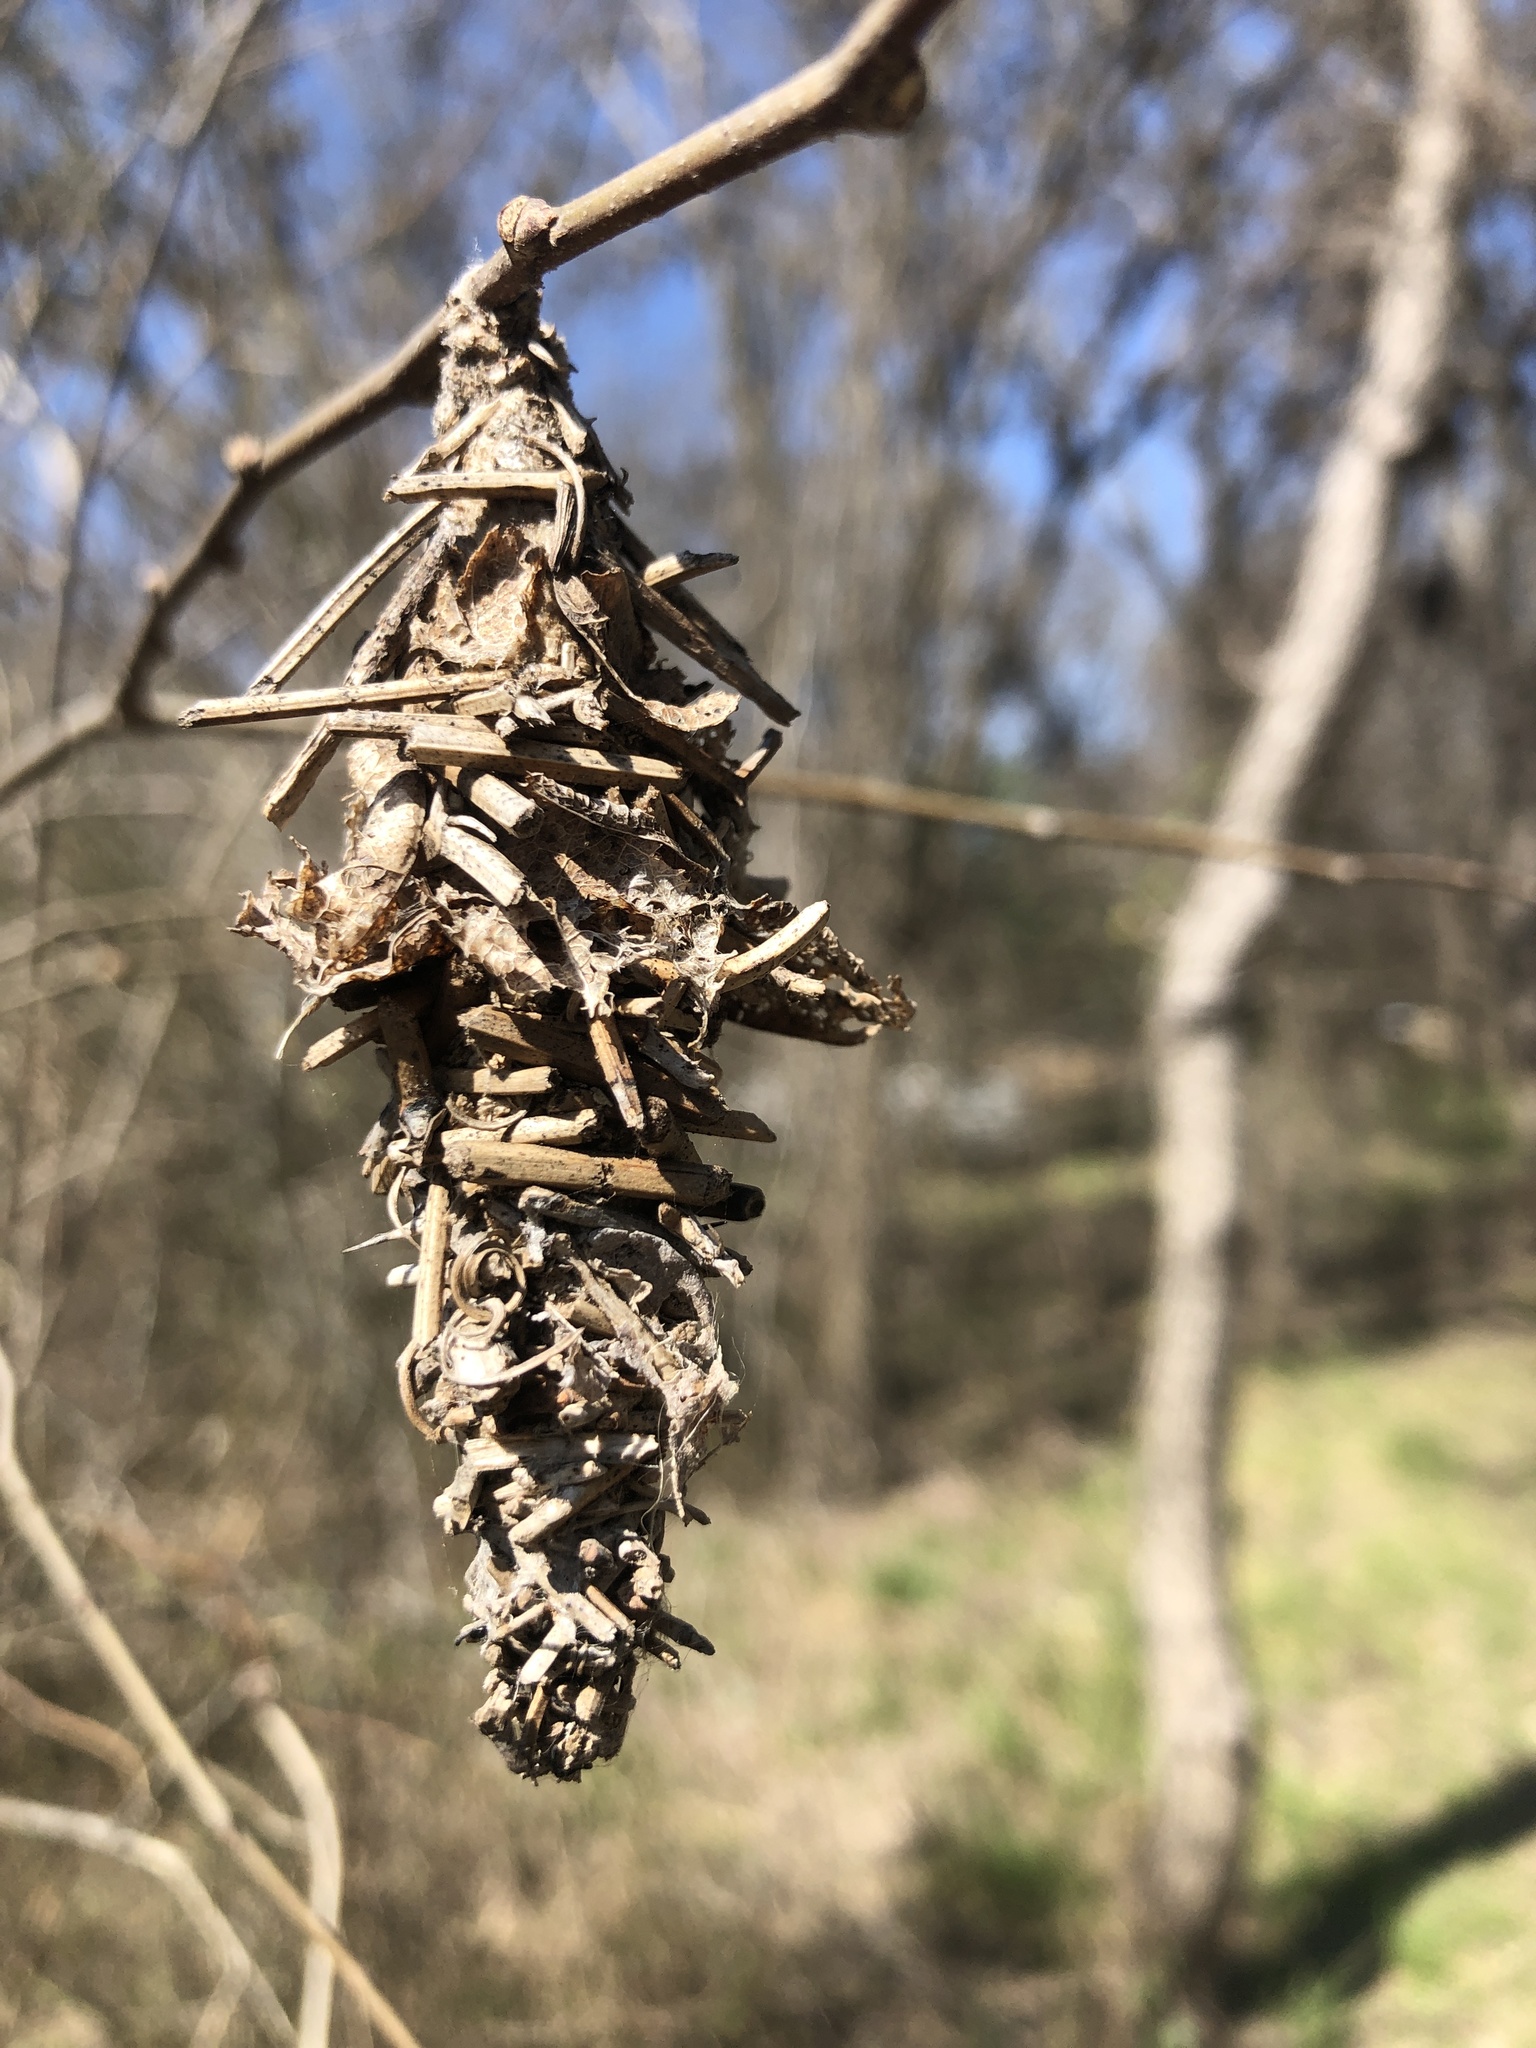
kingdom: Animalia
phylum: Arthropoda
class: Insecta
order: Lepidoptera
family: Psychidae
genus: Oiketicus
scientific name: Oiketicus
